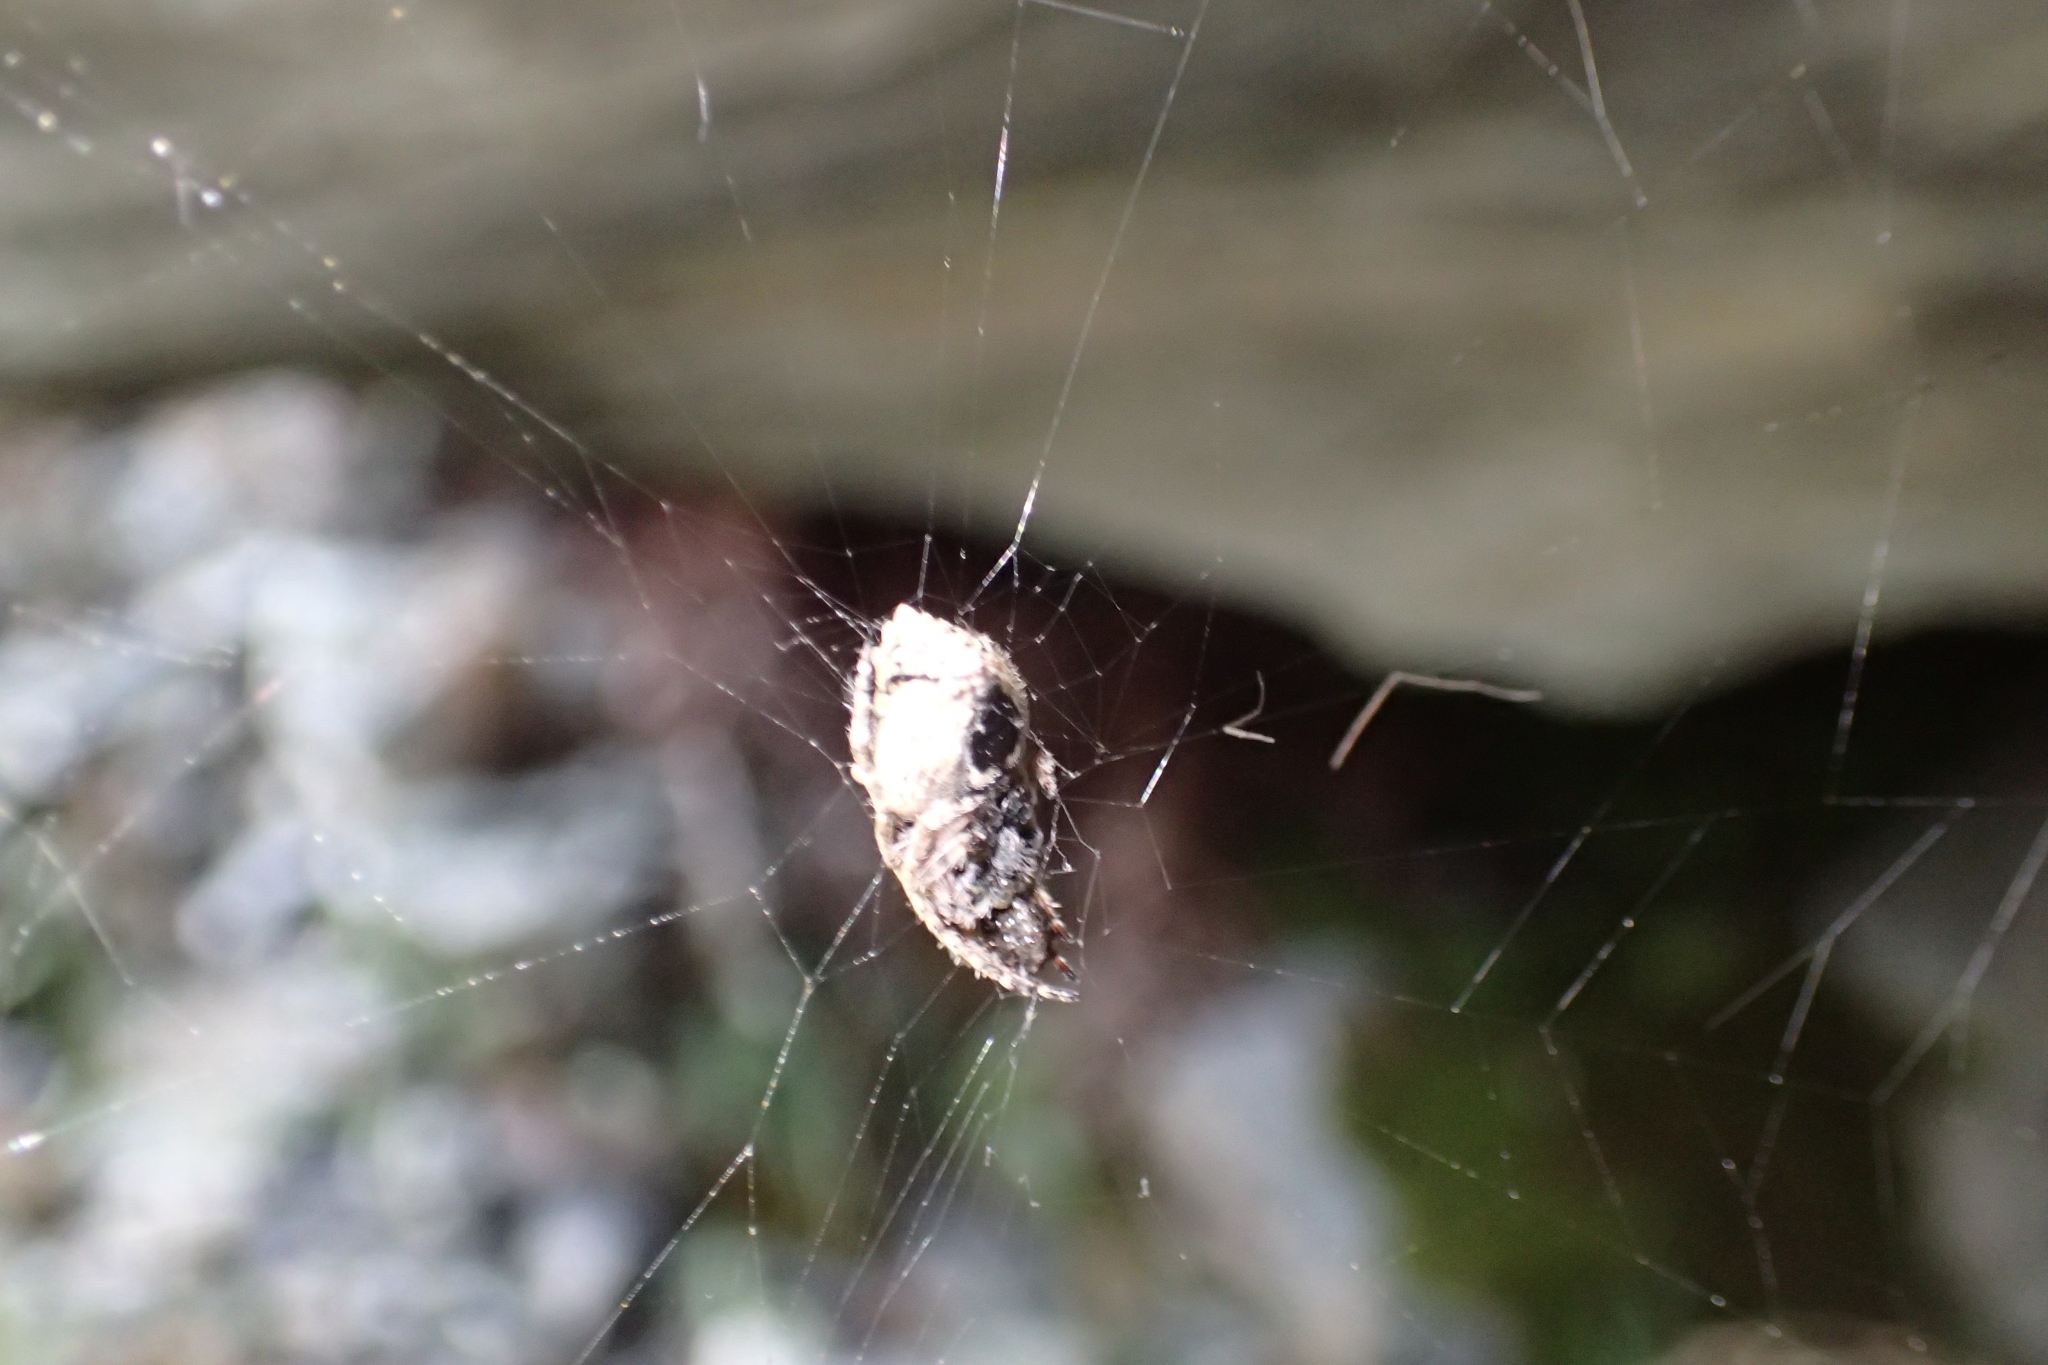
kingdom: Animalia
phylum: Arthropoda
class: Arachnida
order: Araneae
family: Araneidae
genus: Eriophora
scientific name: Eriophora pustulosa
